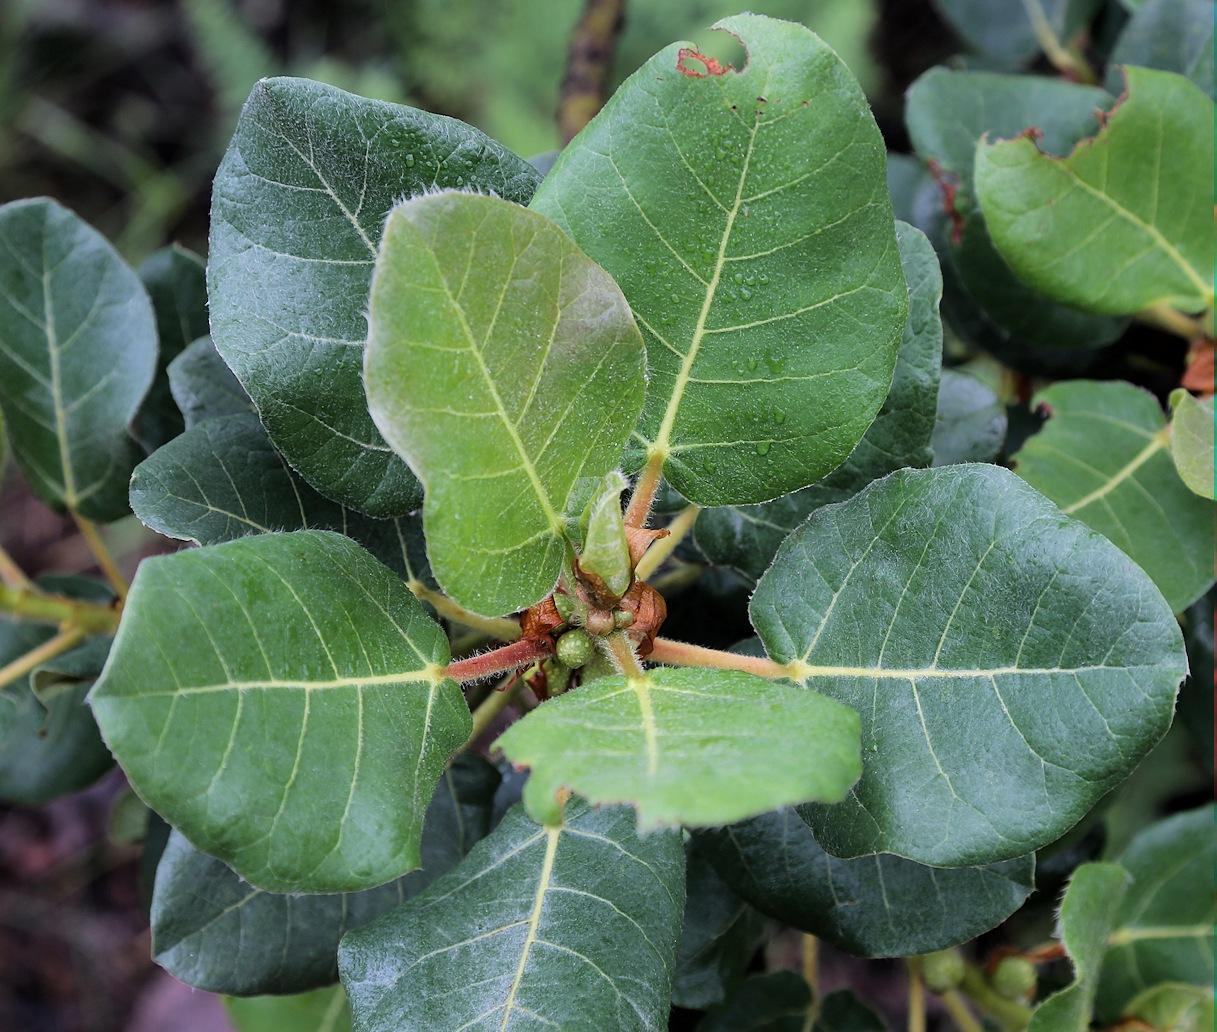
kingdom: Plantae
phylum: Tracheophyta
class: Magnoliopsida
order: Rosales
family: Moraceae
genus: Ficus
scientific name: Ficus glumosa
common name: Hairy rock fig
